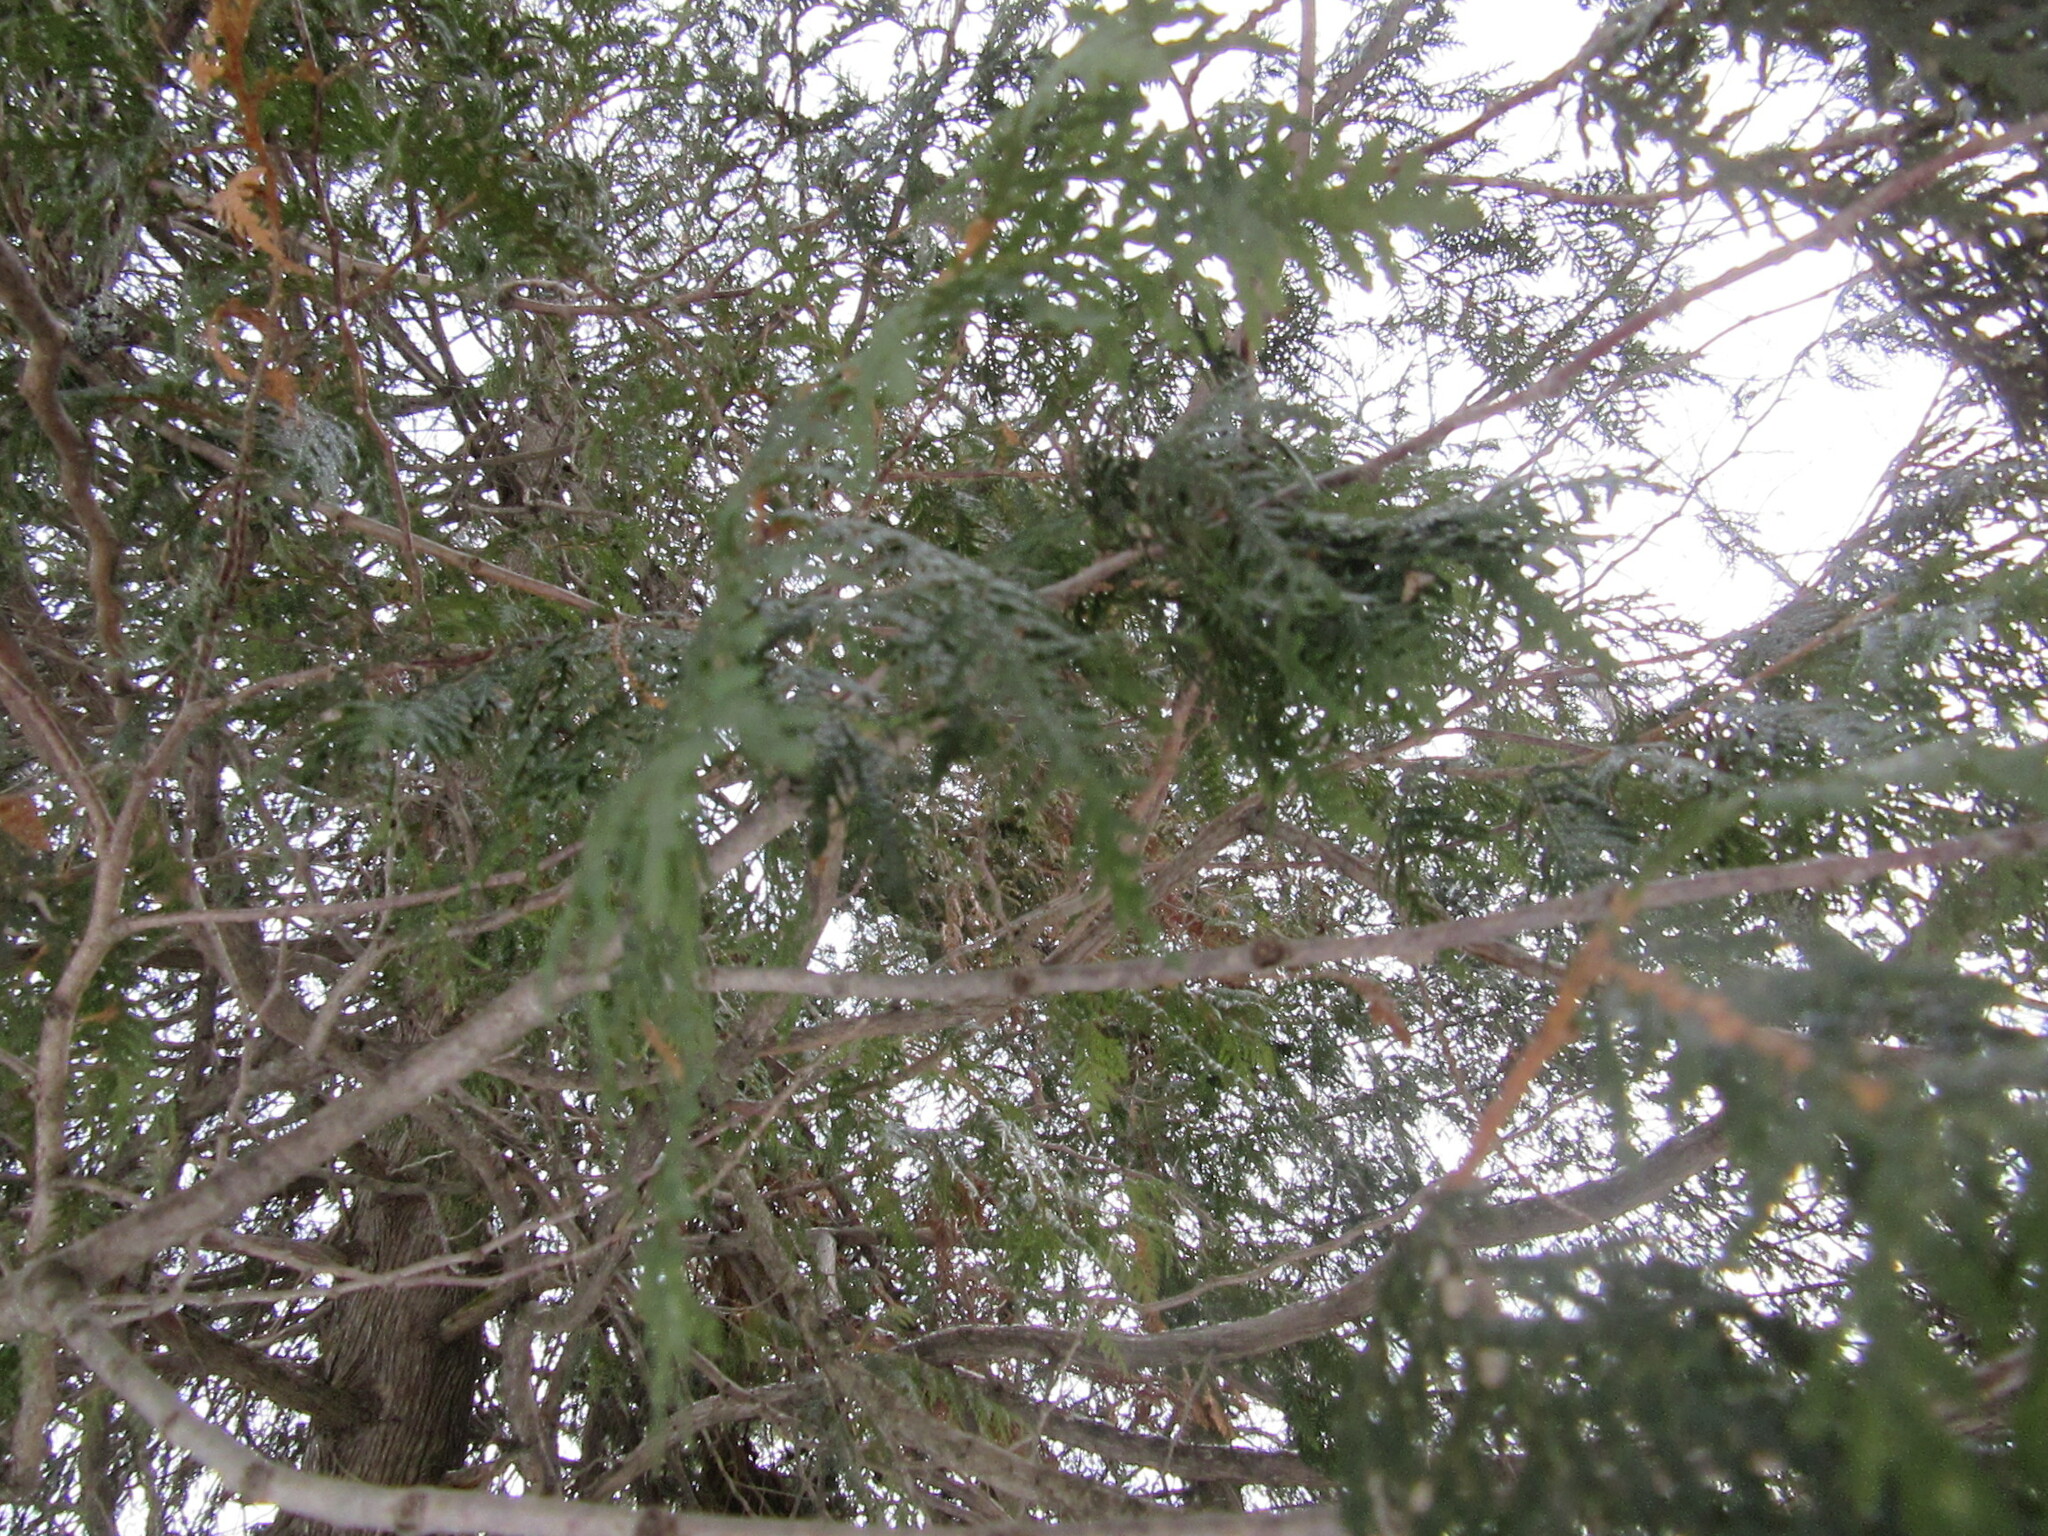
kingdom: Plantae
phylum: Tracheophyta
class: Pinopsida
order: Pinales
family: Cupressaceae
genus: Thuja
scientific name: Thuja occidentalis
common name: Northern white-cedar
